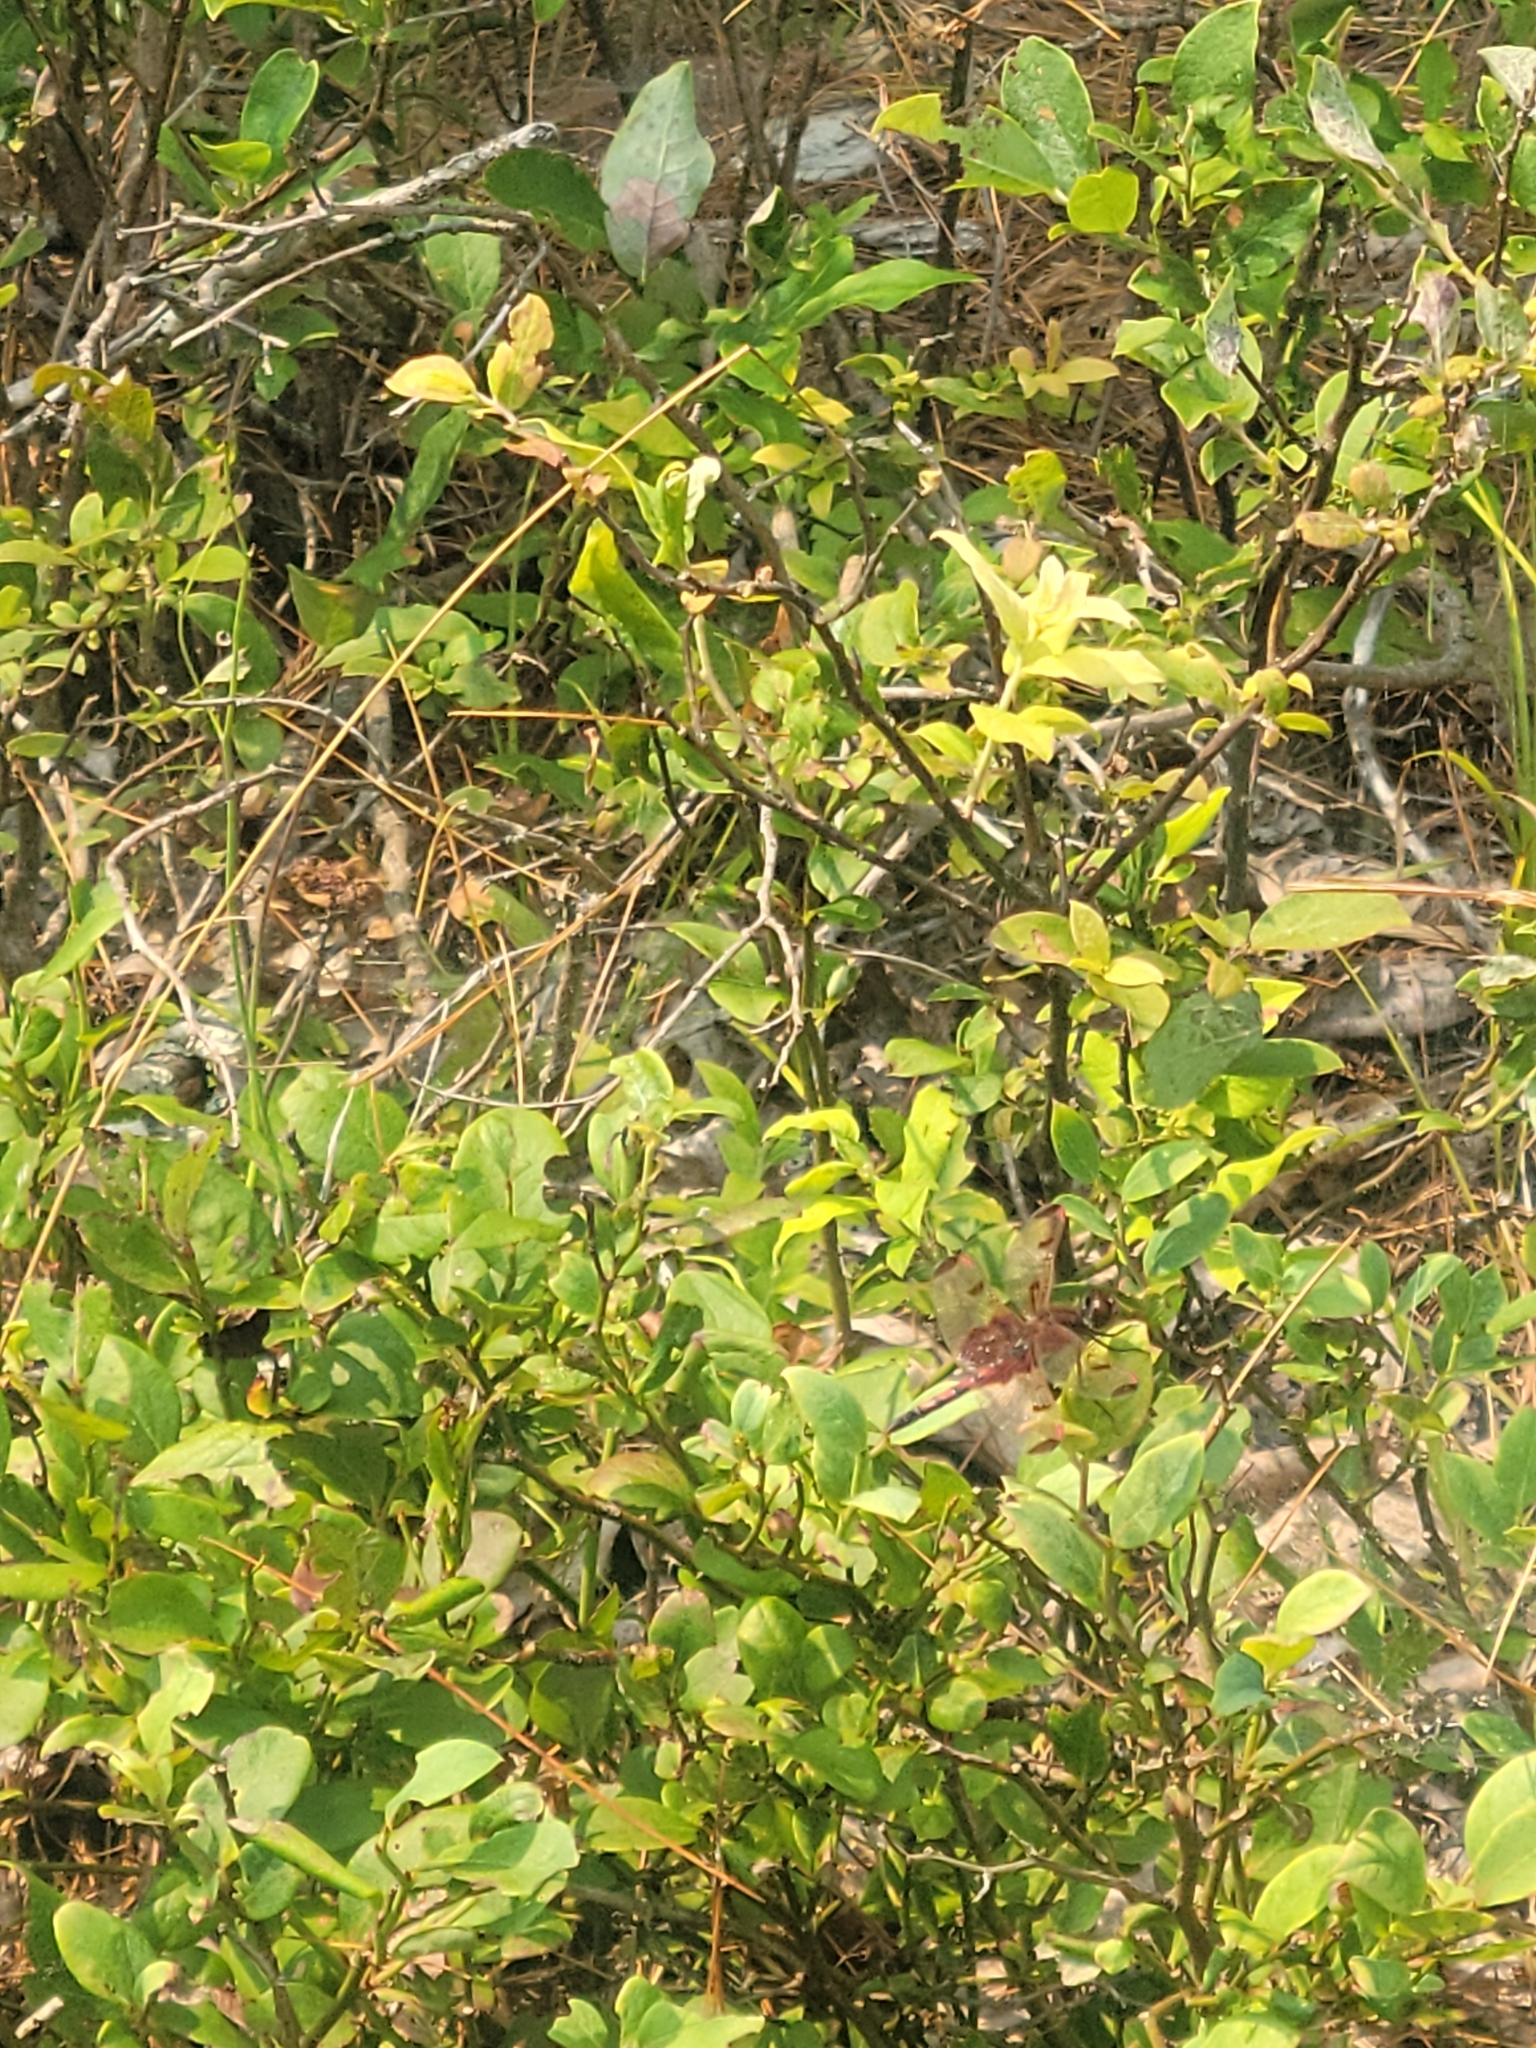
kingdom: Animalia
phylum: Arthropoda
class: Insecta
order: Odonata
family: Libellulidae
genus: Celithemis
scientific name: Celithemis elisa
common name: Calico pennant
